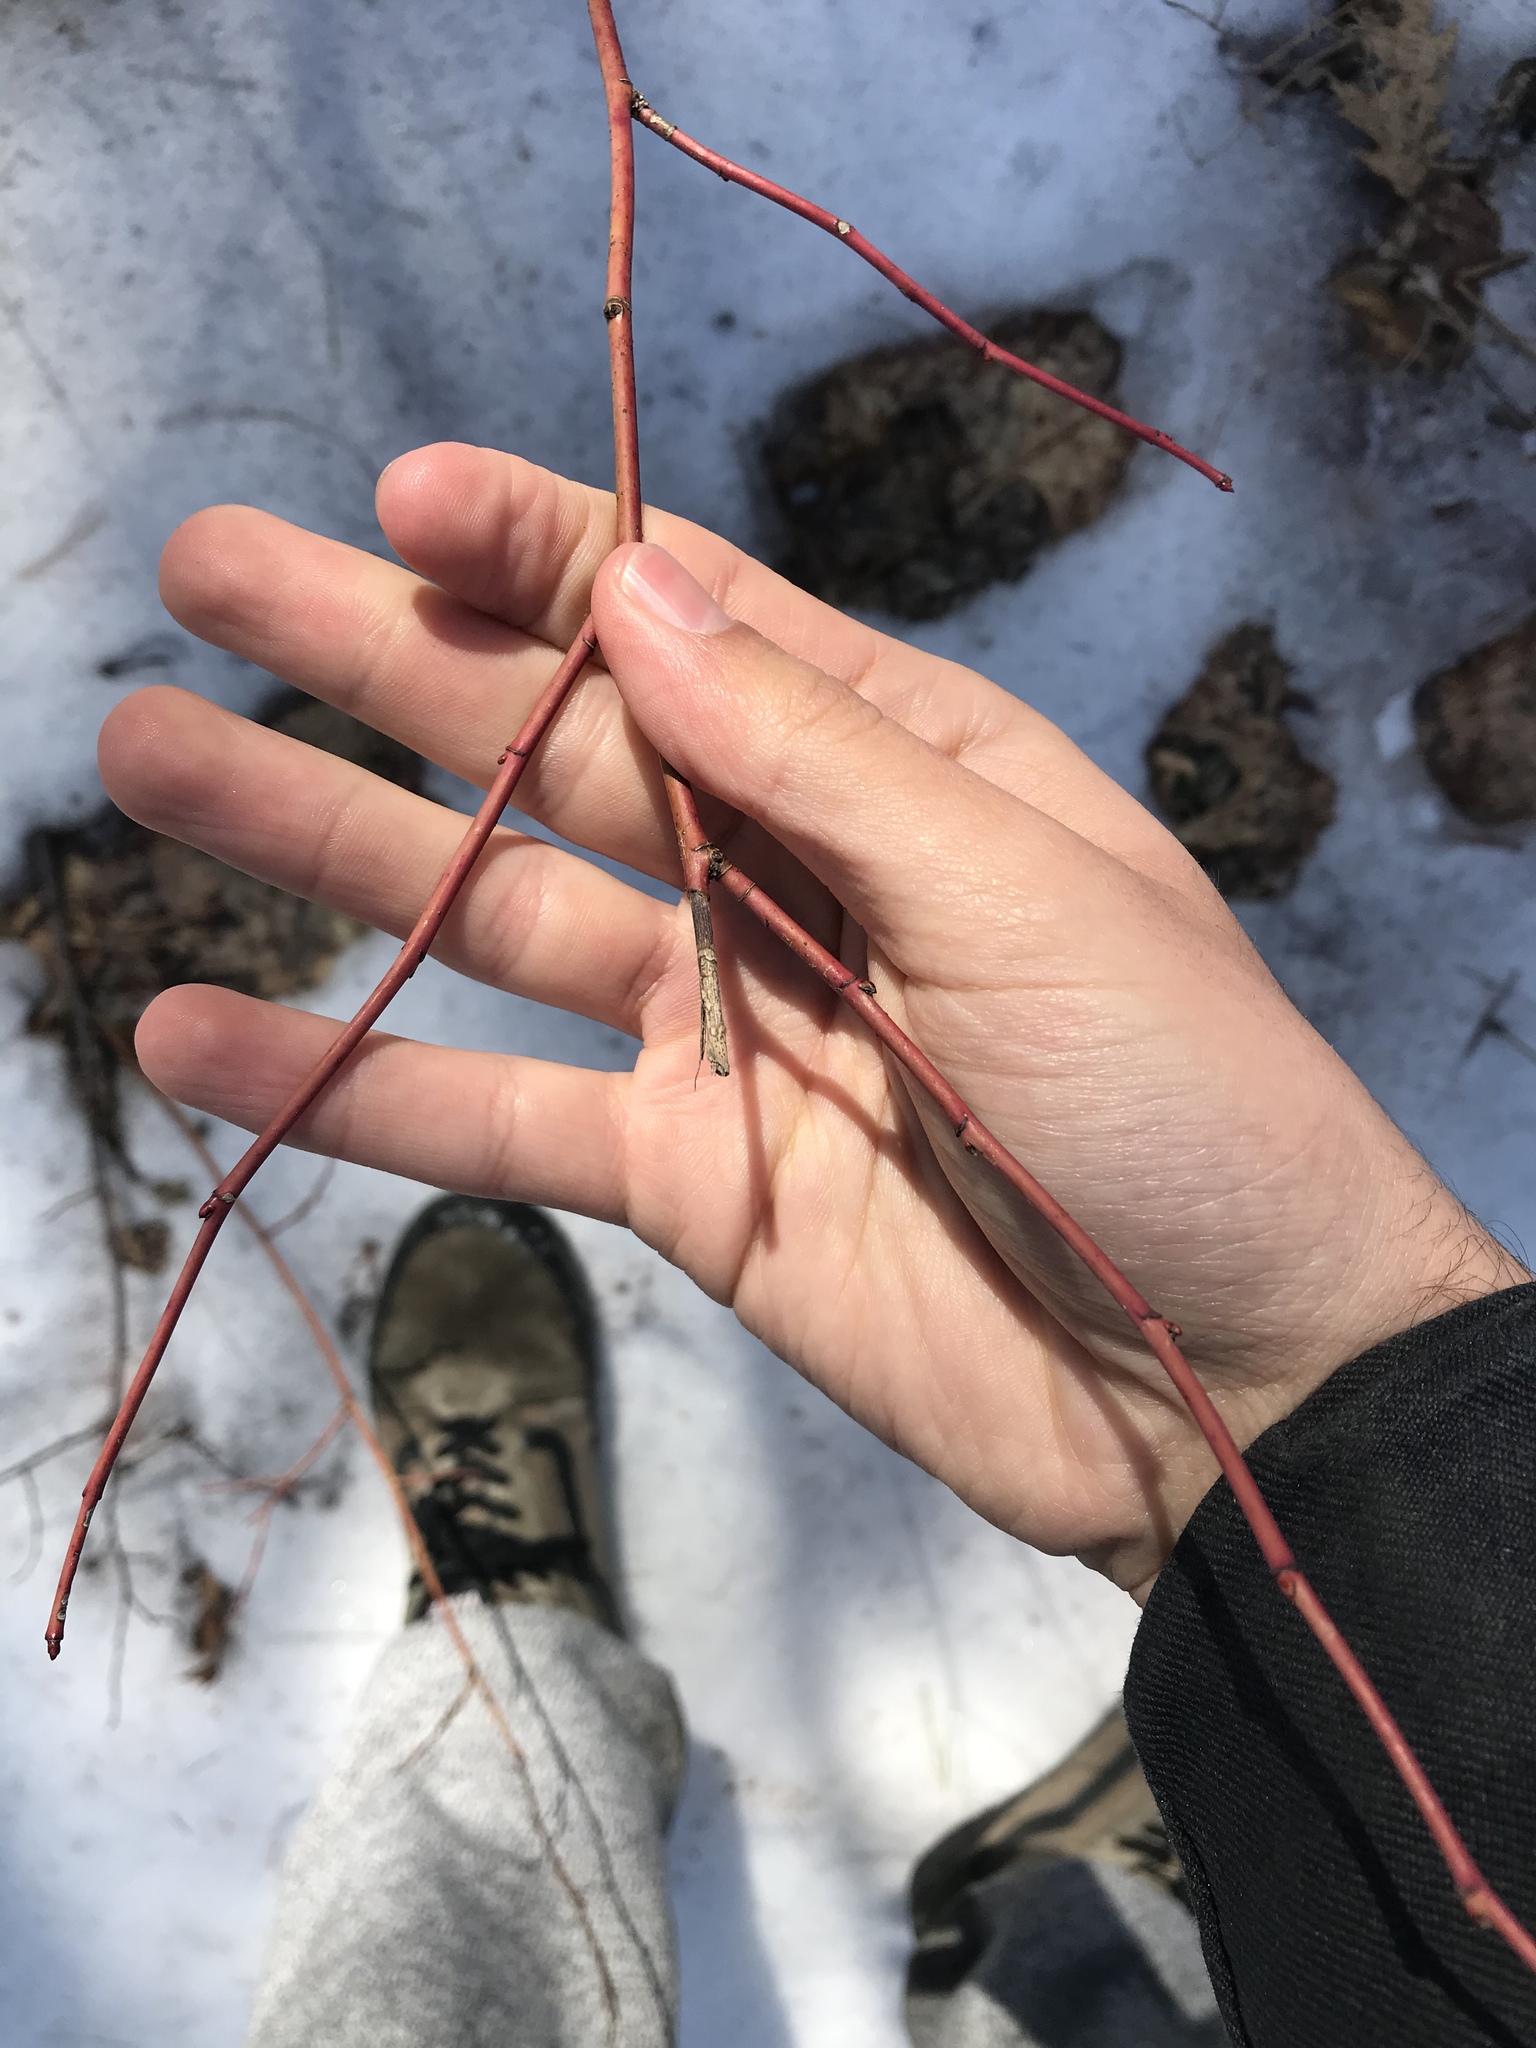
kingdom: Plantae
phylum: Tracheophyta
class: Magnoliopsida
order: Cornales
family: Cornaceae
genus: Cornus
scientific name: Cornus alternifolia
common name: Pagoda dogwood
